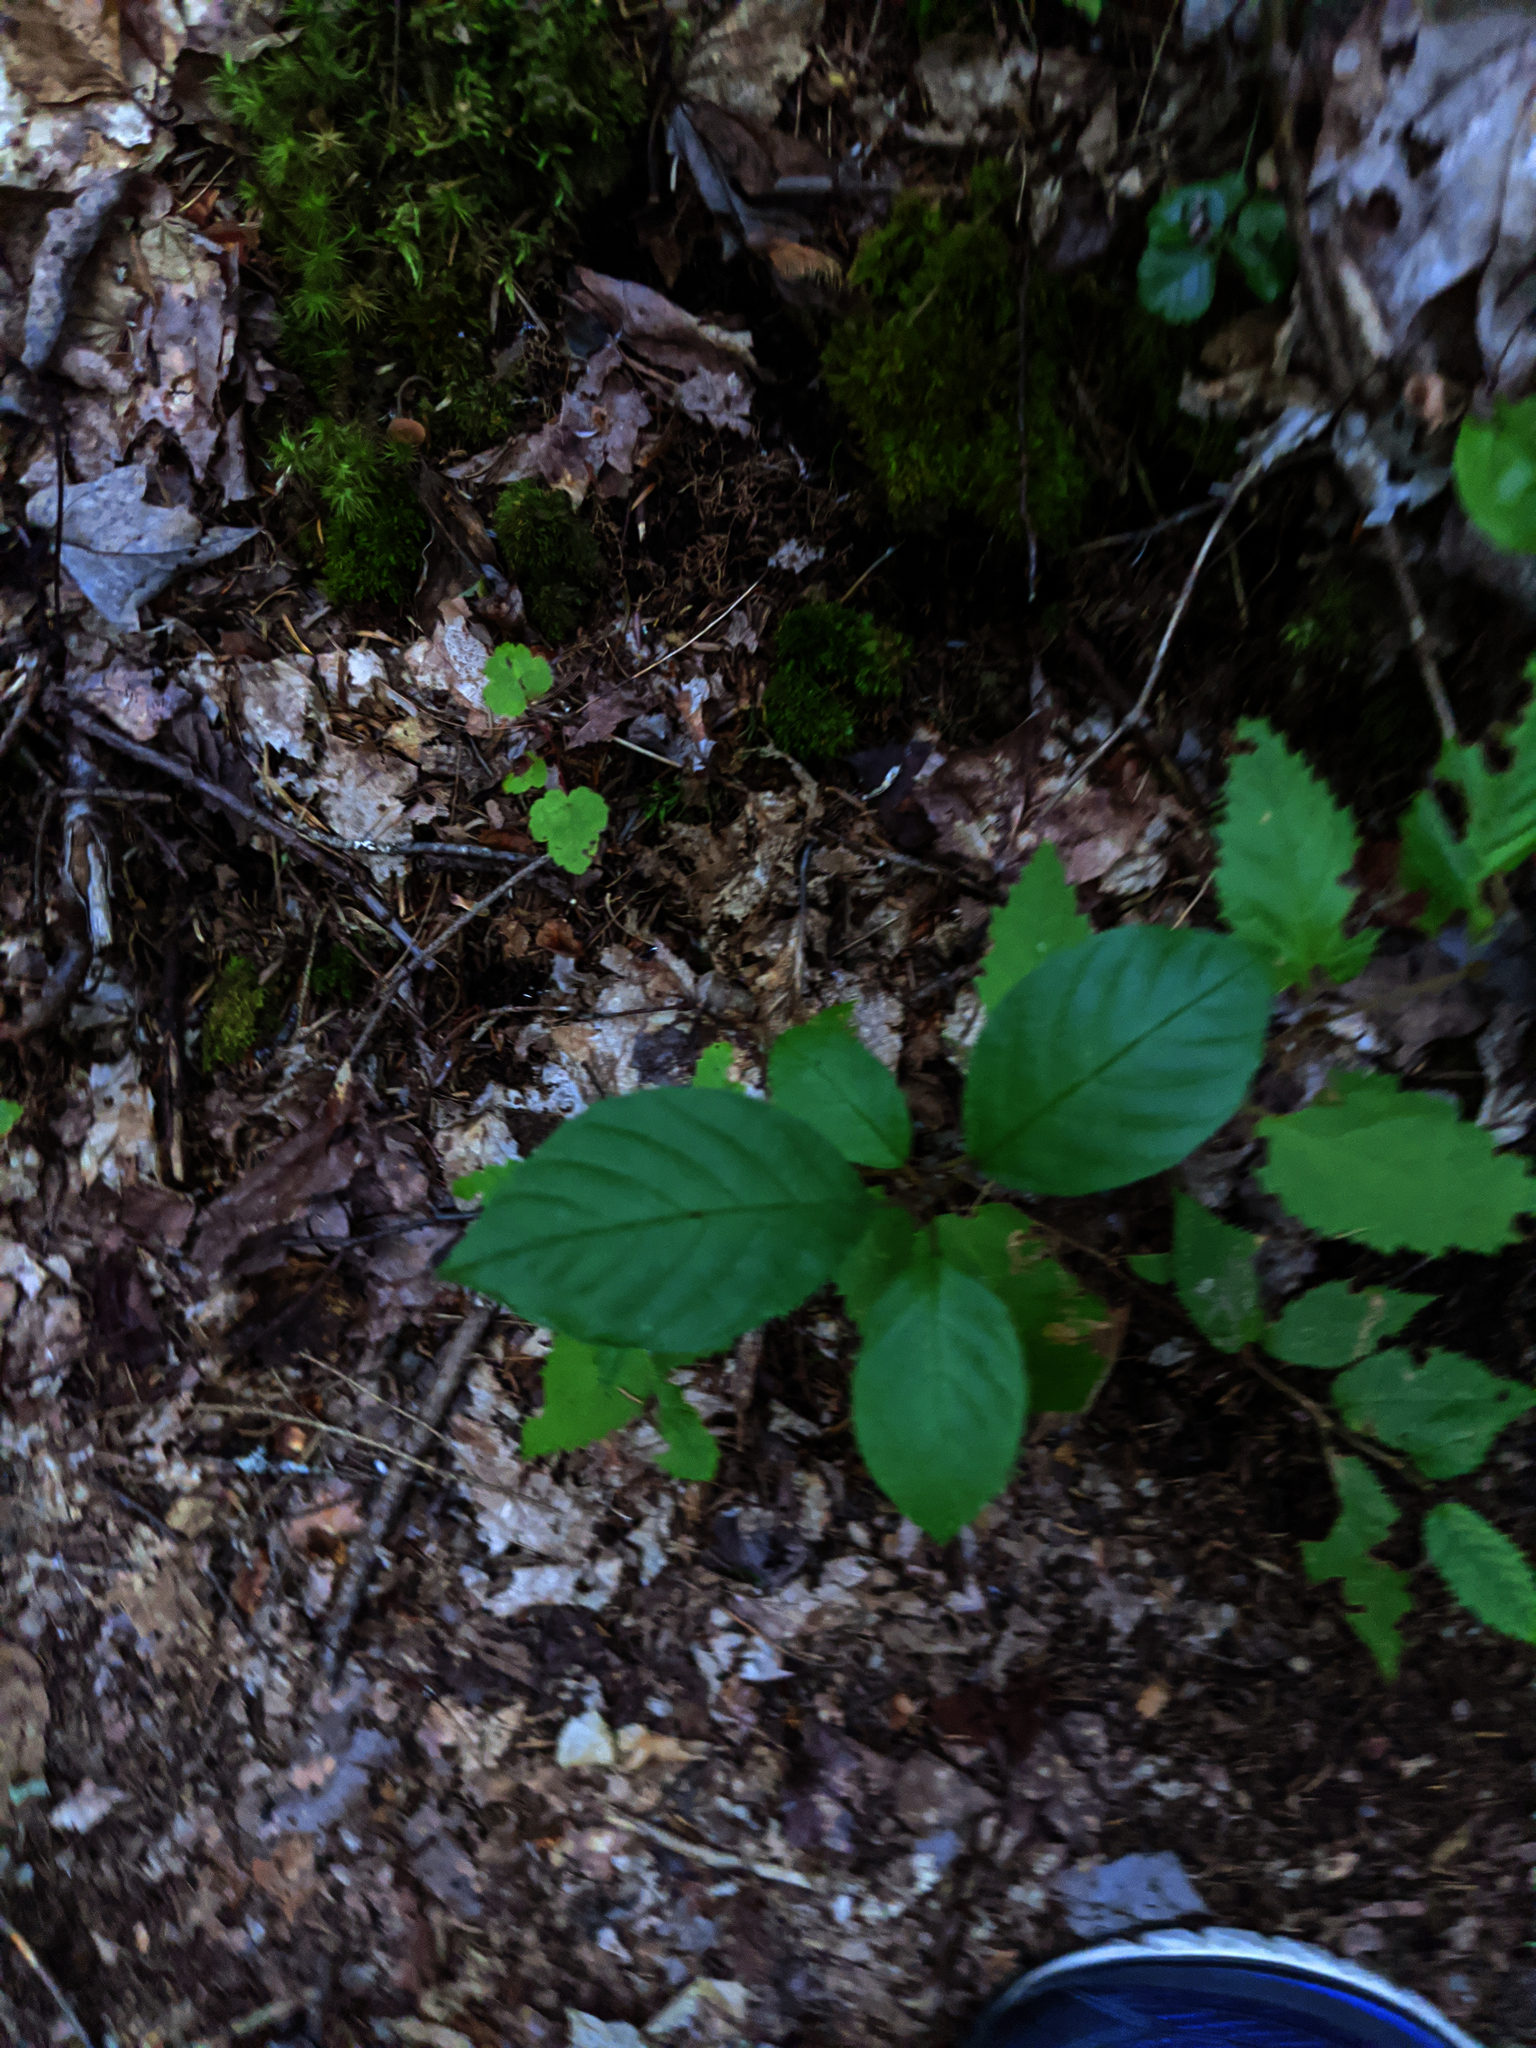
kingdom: Plantae
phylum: Tracheophyta
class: Magnoliopsida
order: Rosales
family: Rhamnaceae
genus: Frangula
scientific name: Frangula alnus
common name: Alder buckthorn
